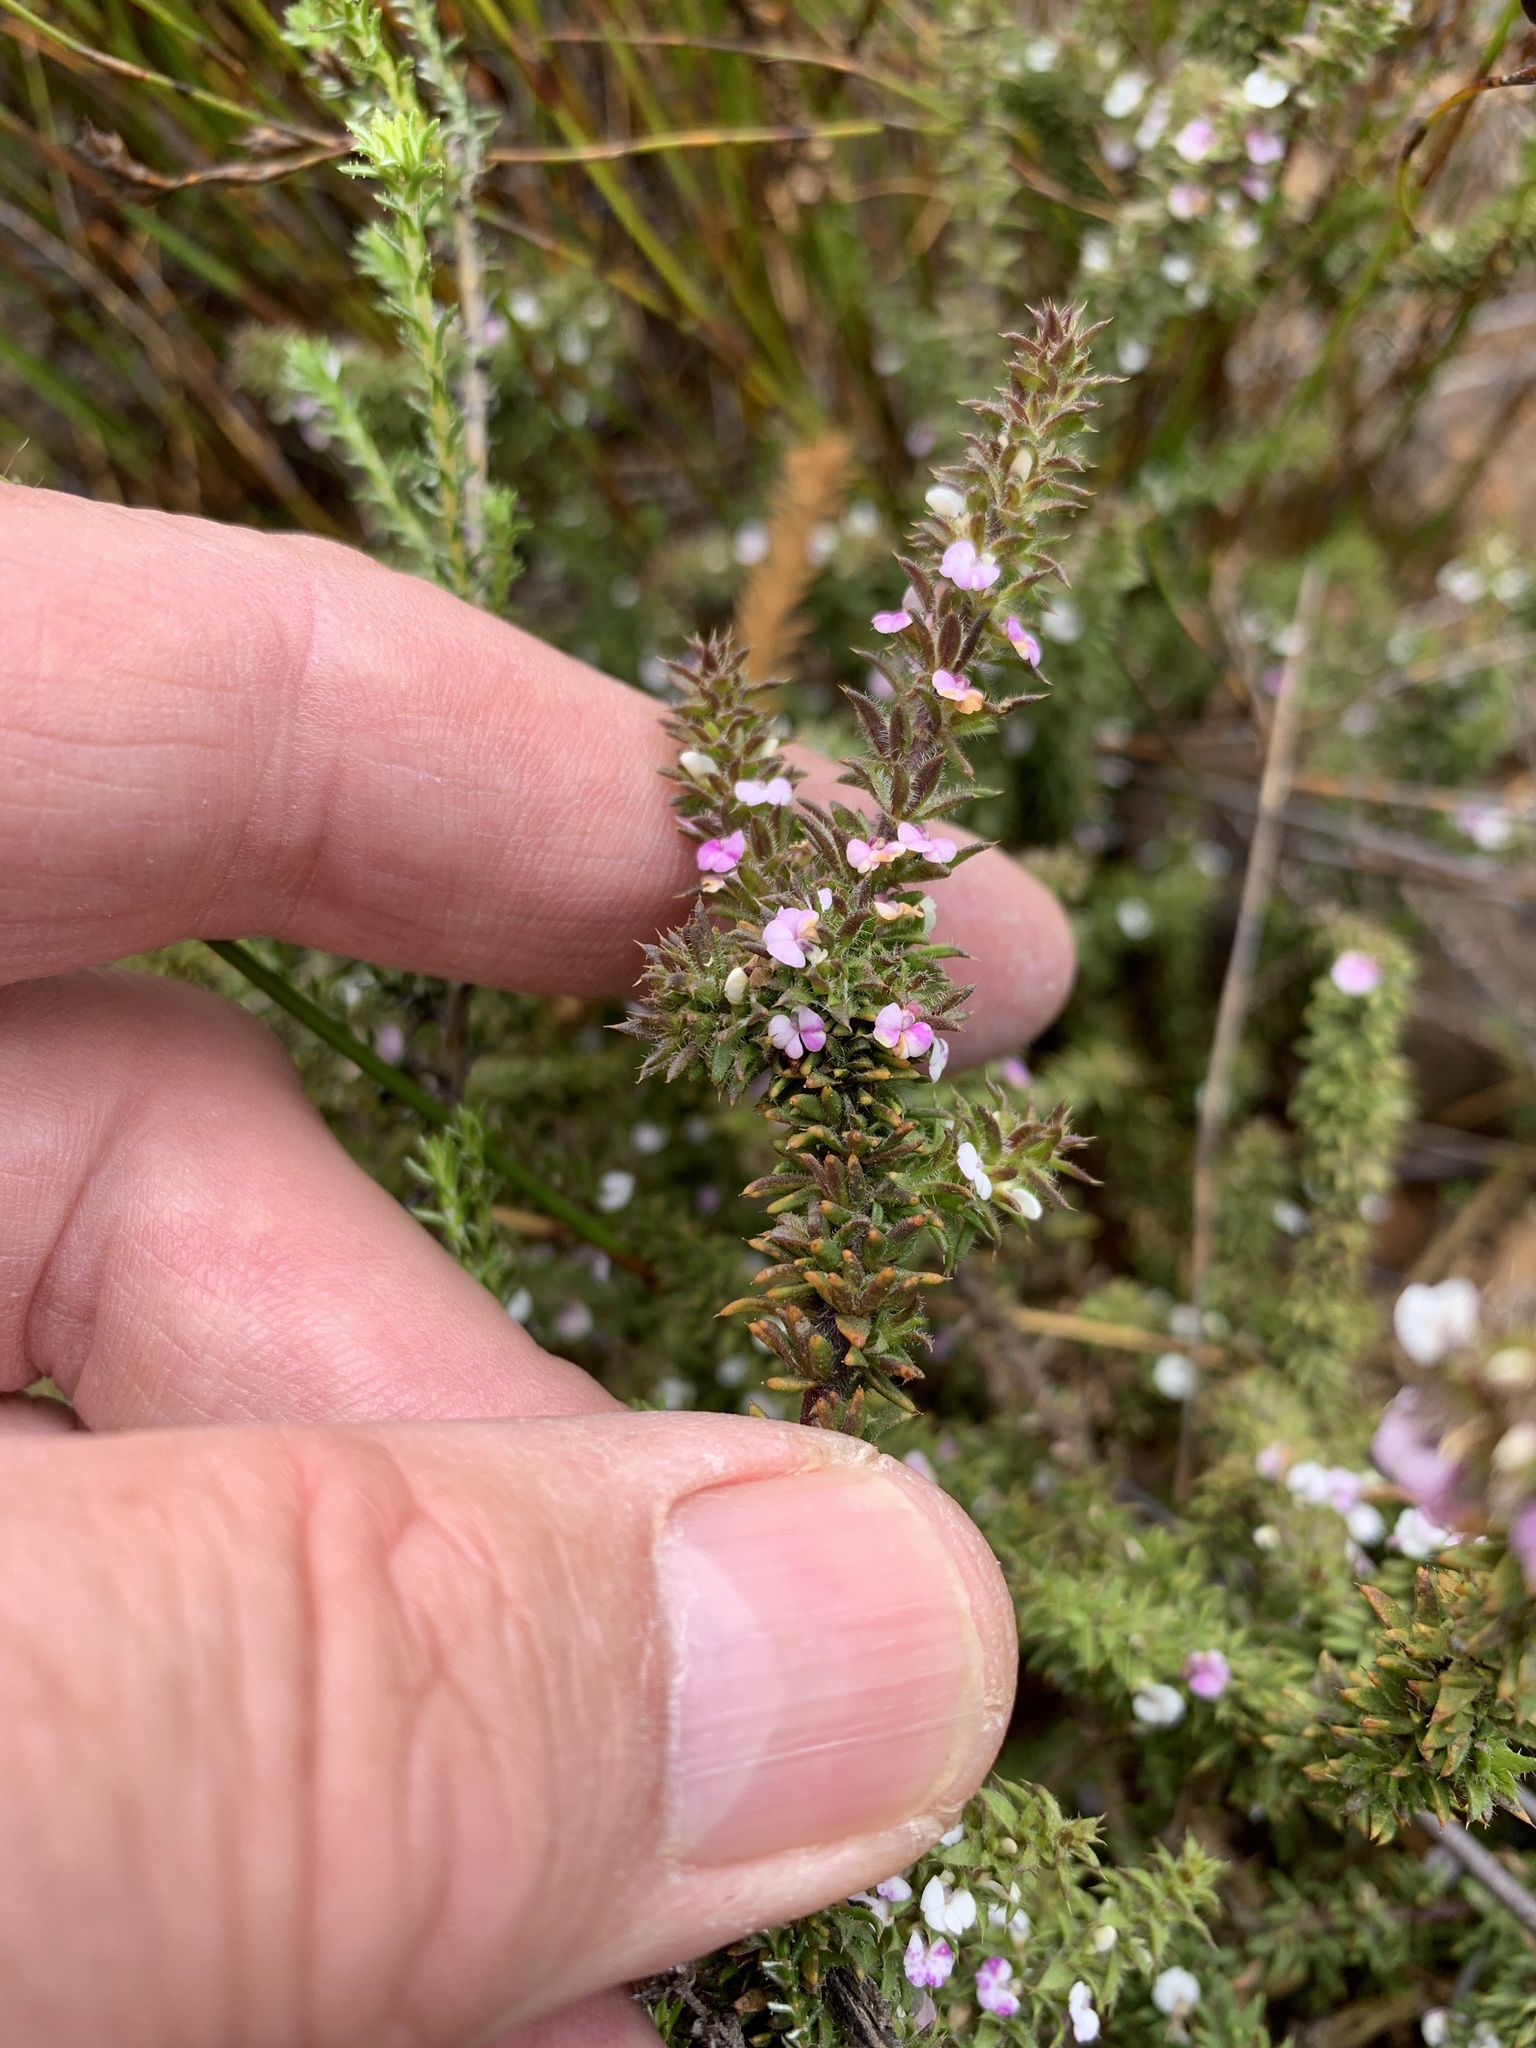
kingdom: Plantae
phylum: Tracheophyta
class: Magnoliopsida
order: Fabales
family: Polygalaceae
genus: Muraltia
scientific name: Muraltia arachnoidea
